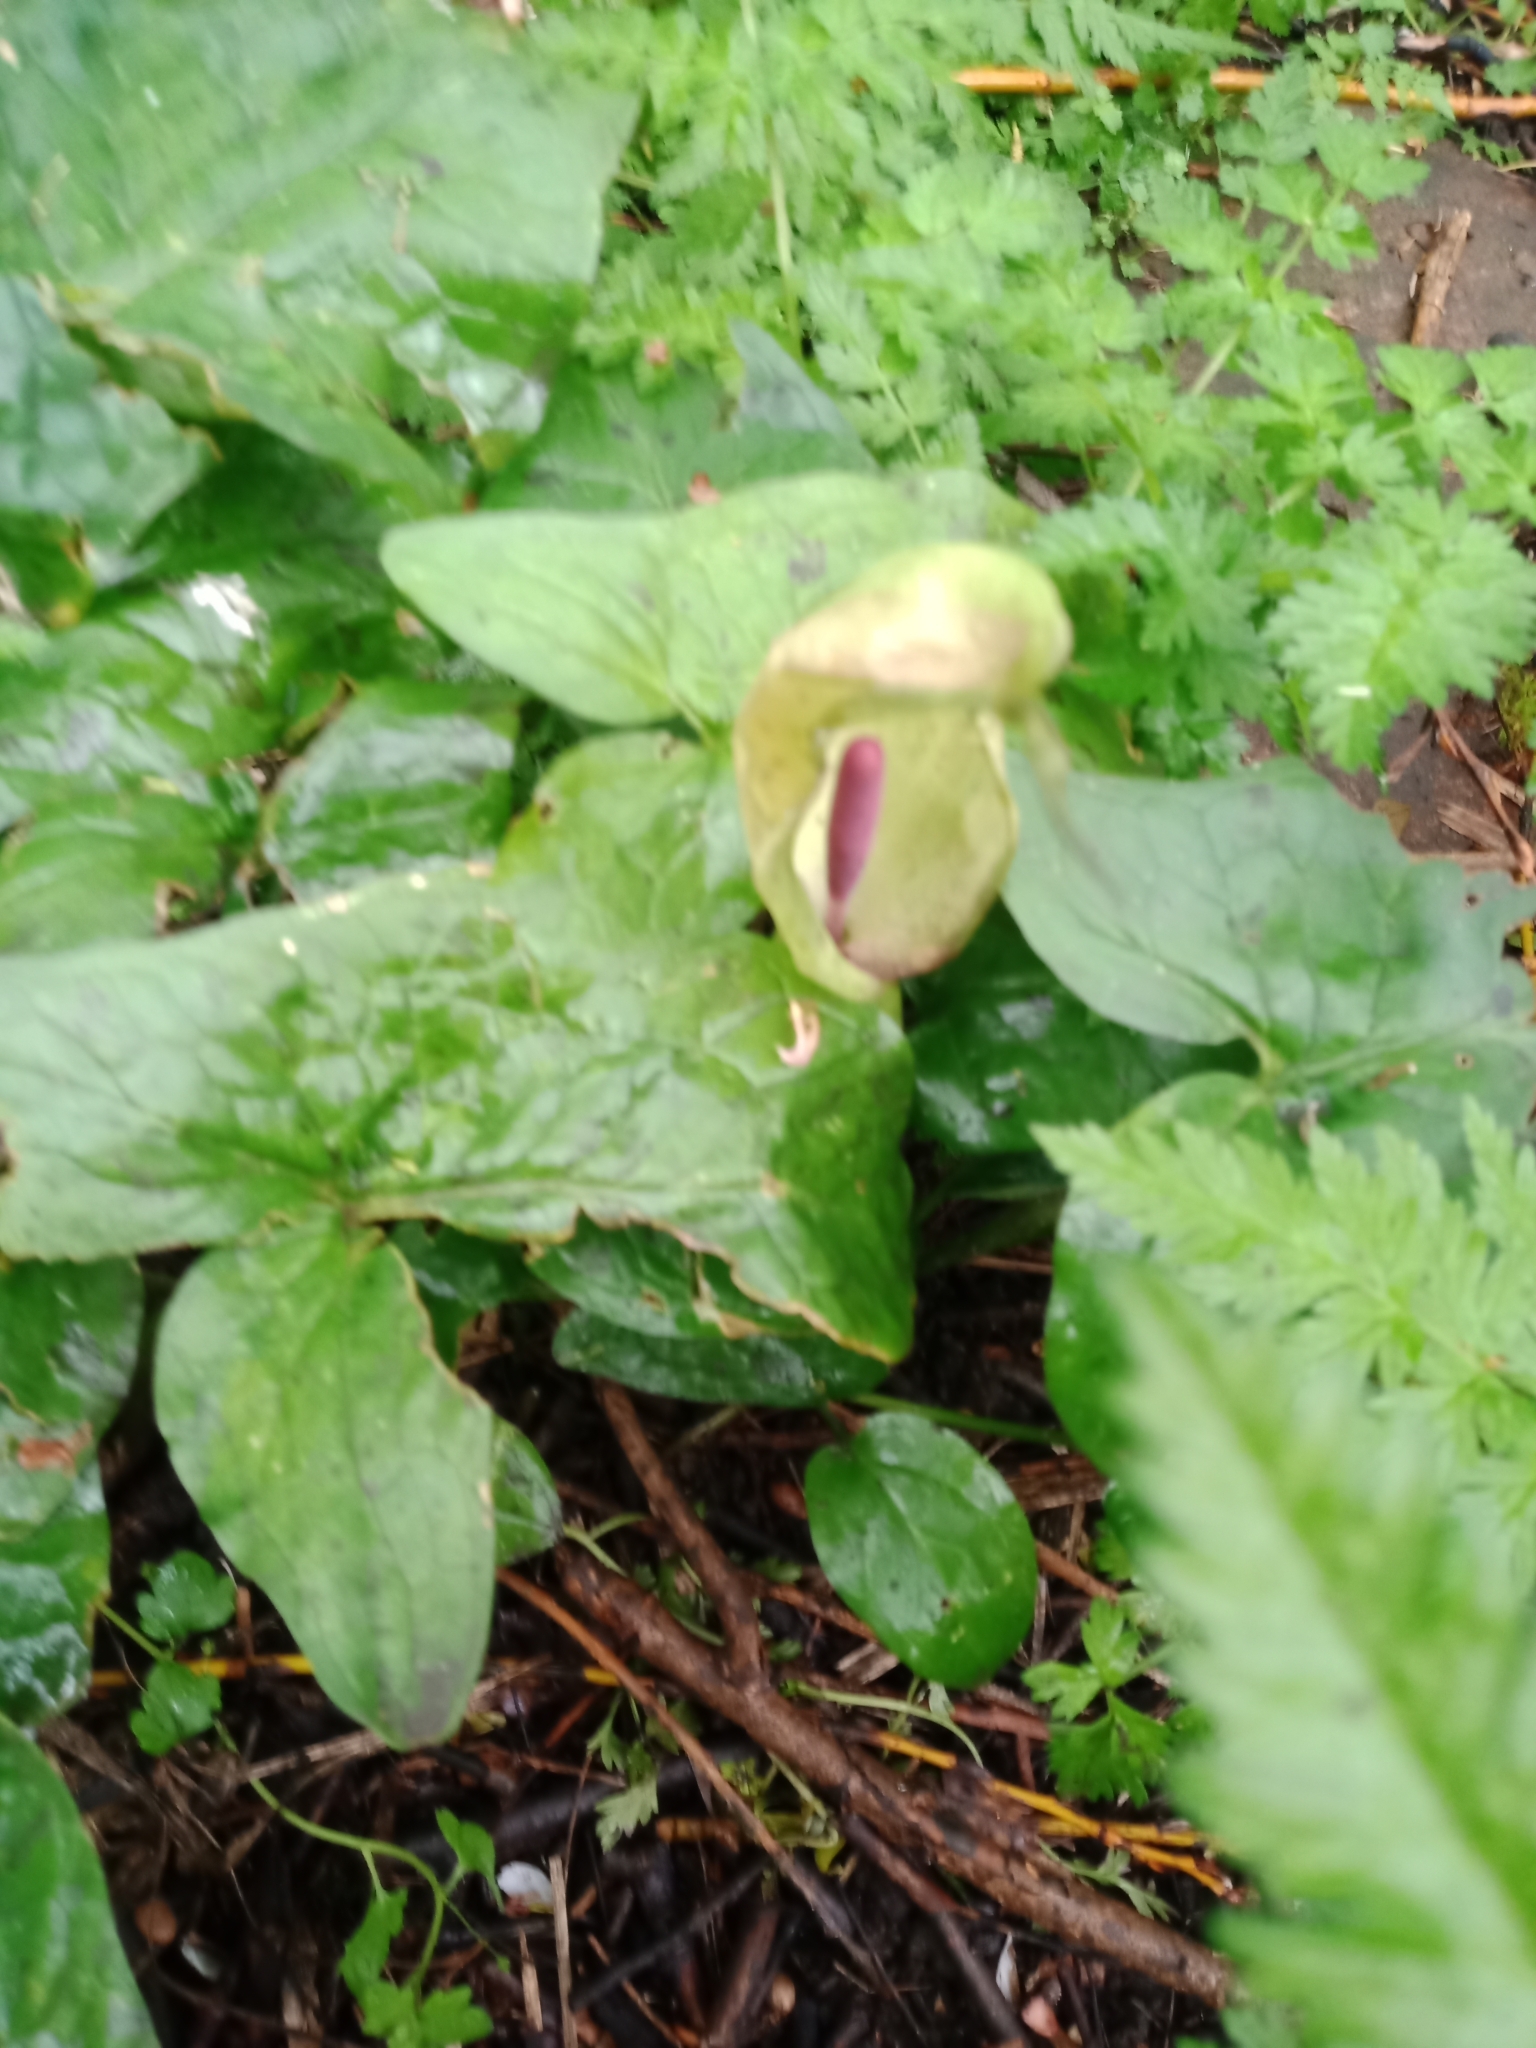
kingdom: Plantae
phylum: Tracheophyta
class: Liliopsida
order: Alismatales
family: Araceae
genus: Arum
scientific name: Arum maculatum
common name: Lords-and-ladies
